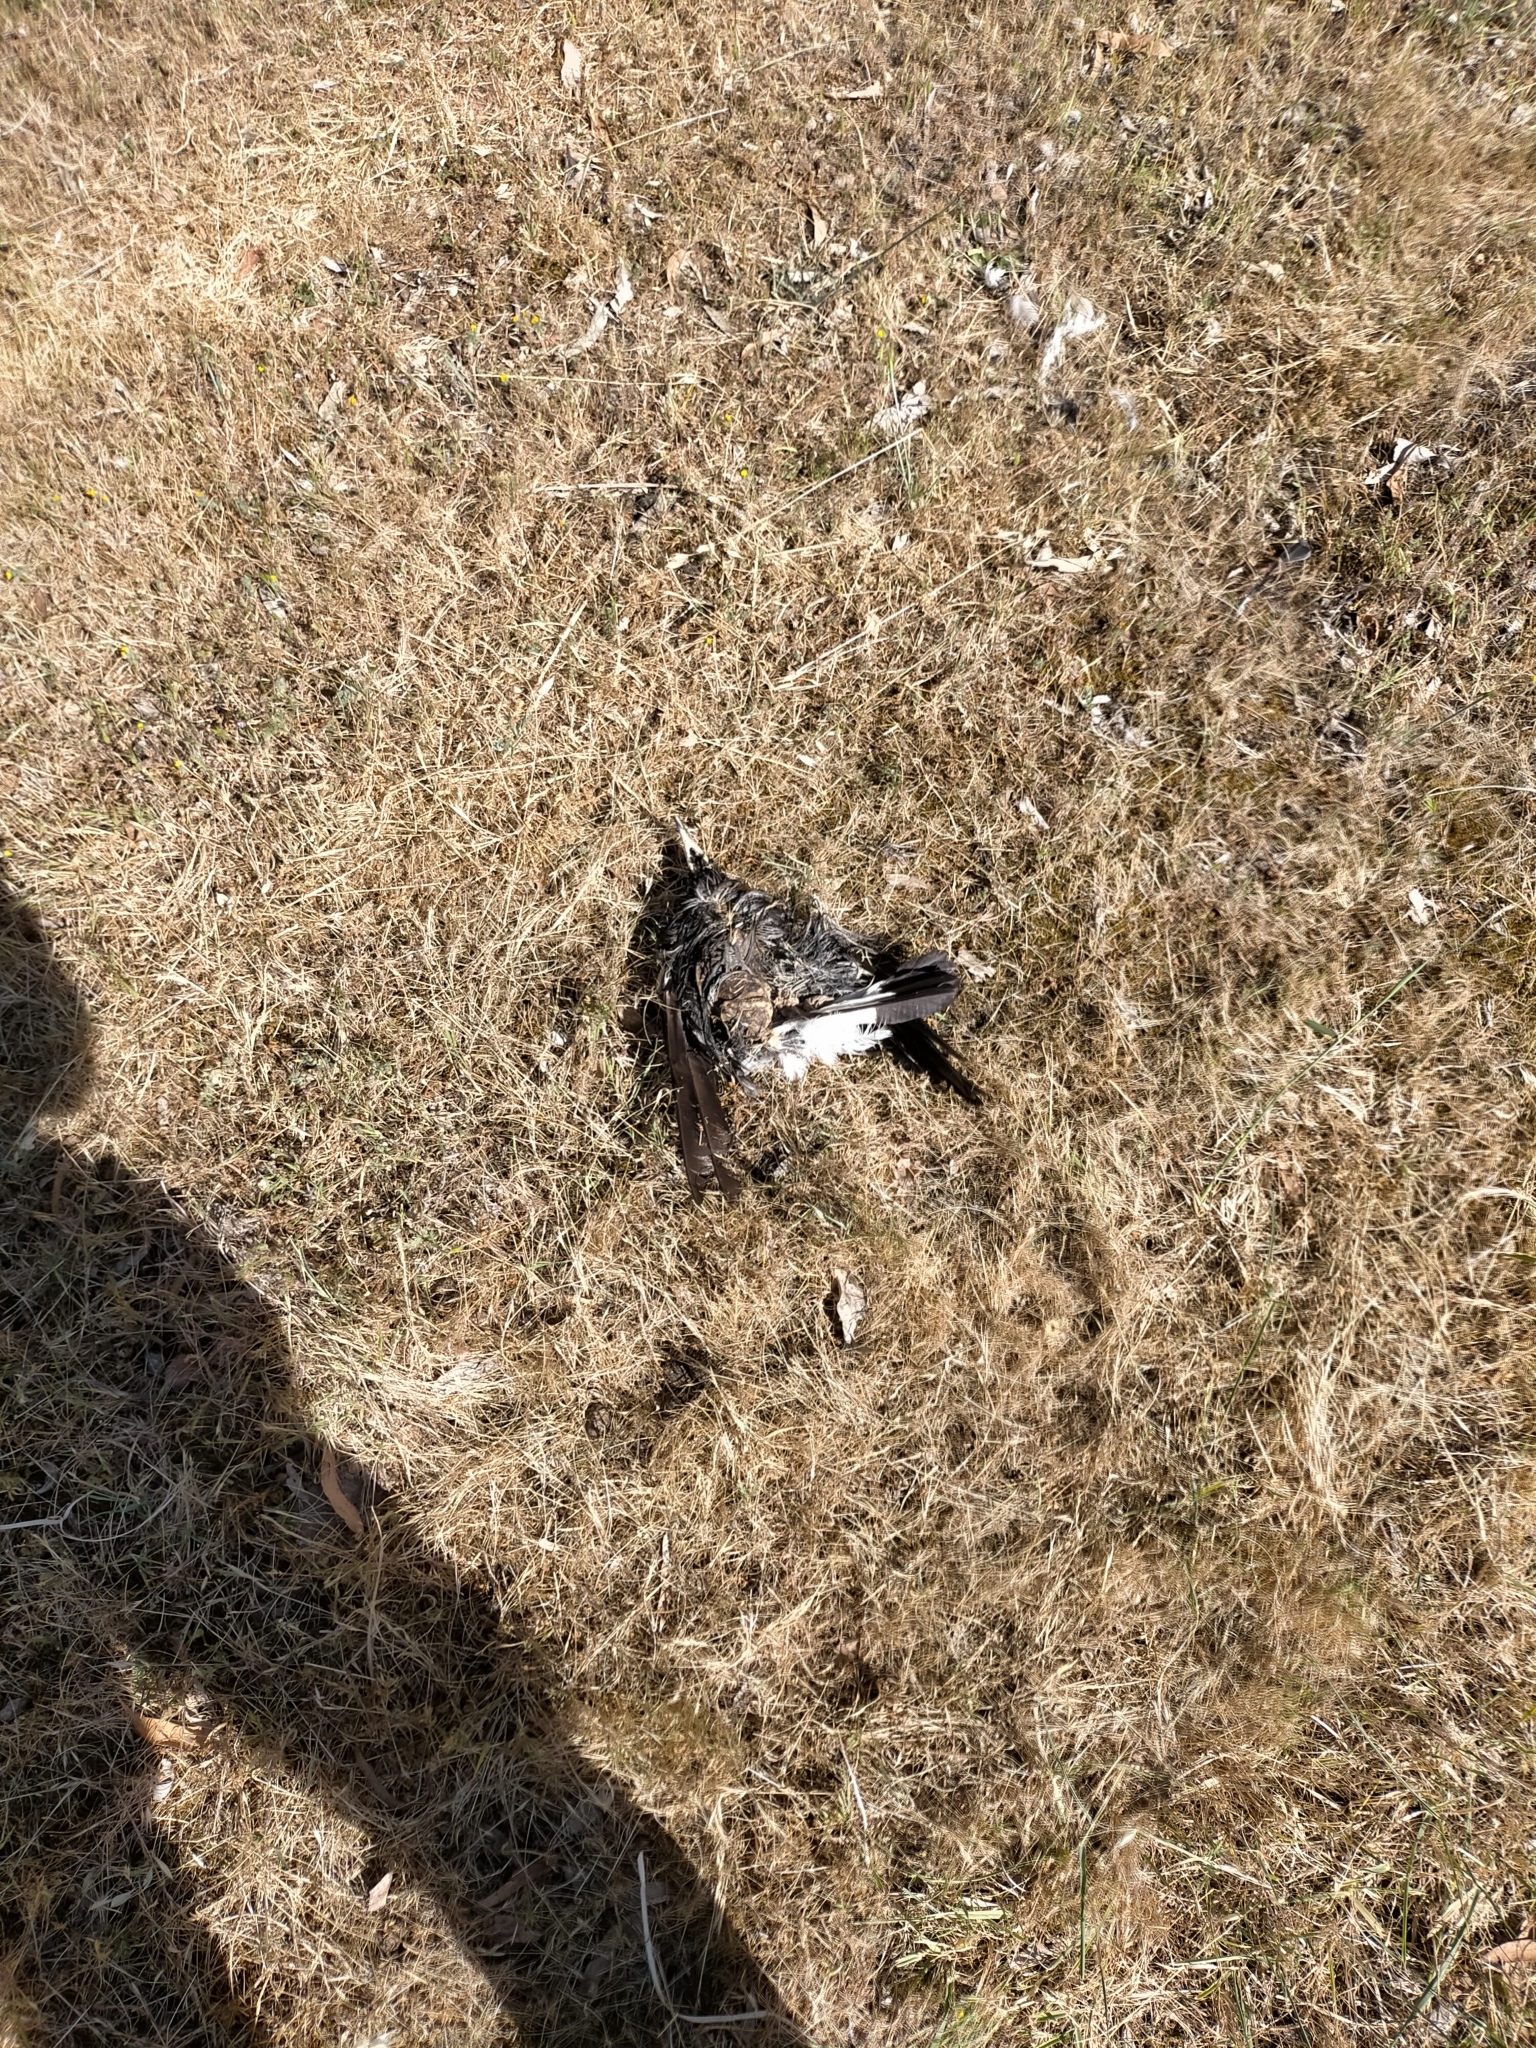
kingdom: Animalia
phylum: Chordata
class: Aves
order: Passeriformes
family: Cracticidae
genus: Gymnorhina
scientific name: Gymnorhina tibicen
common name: Australian magpie
